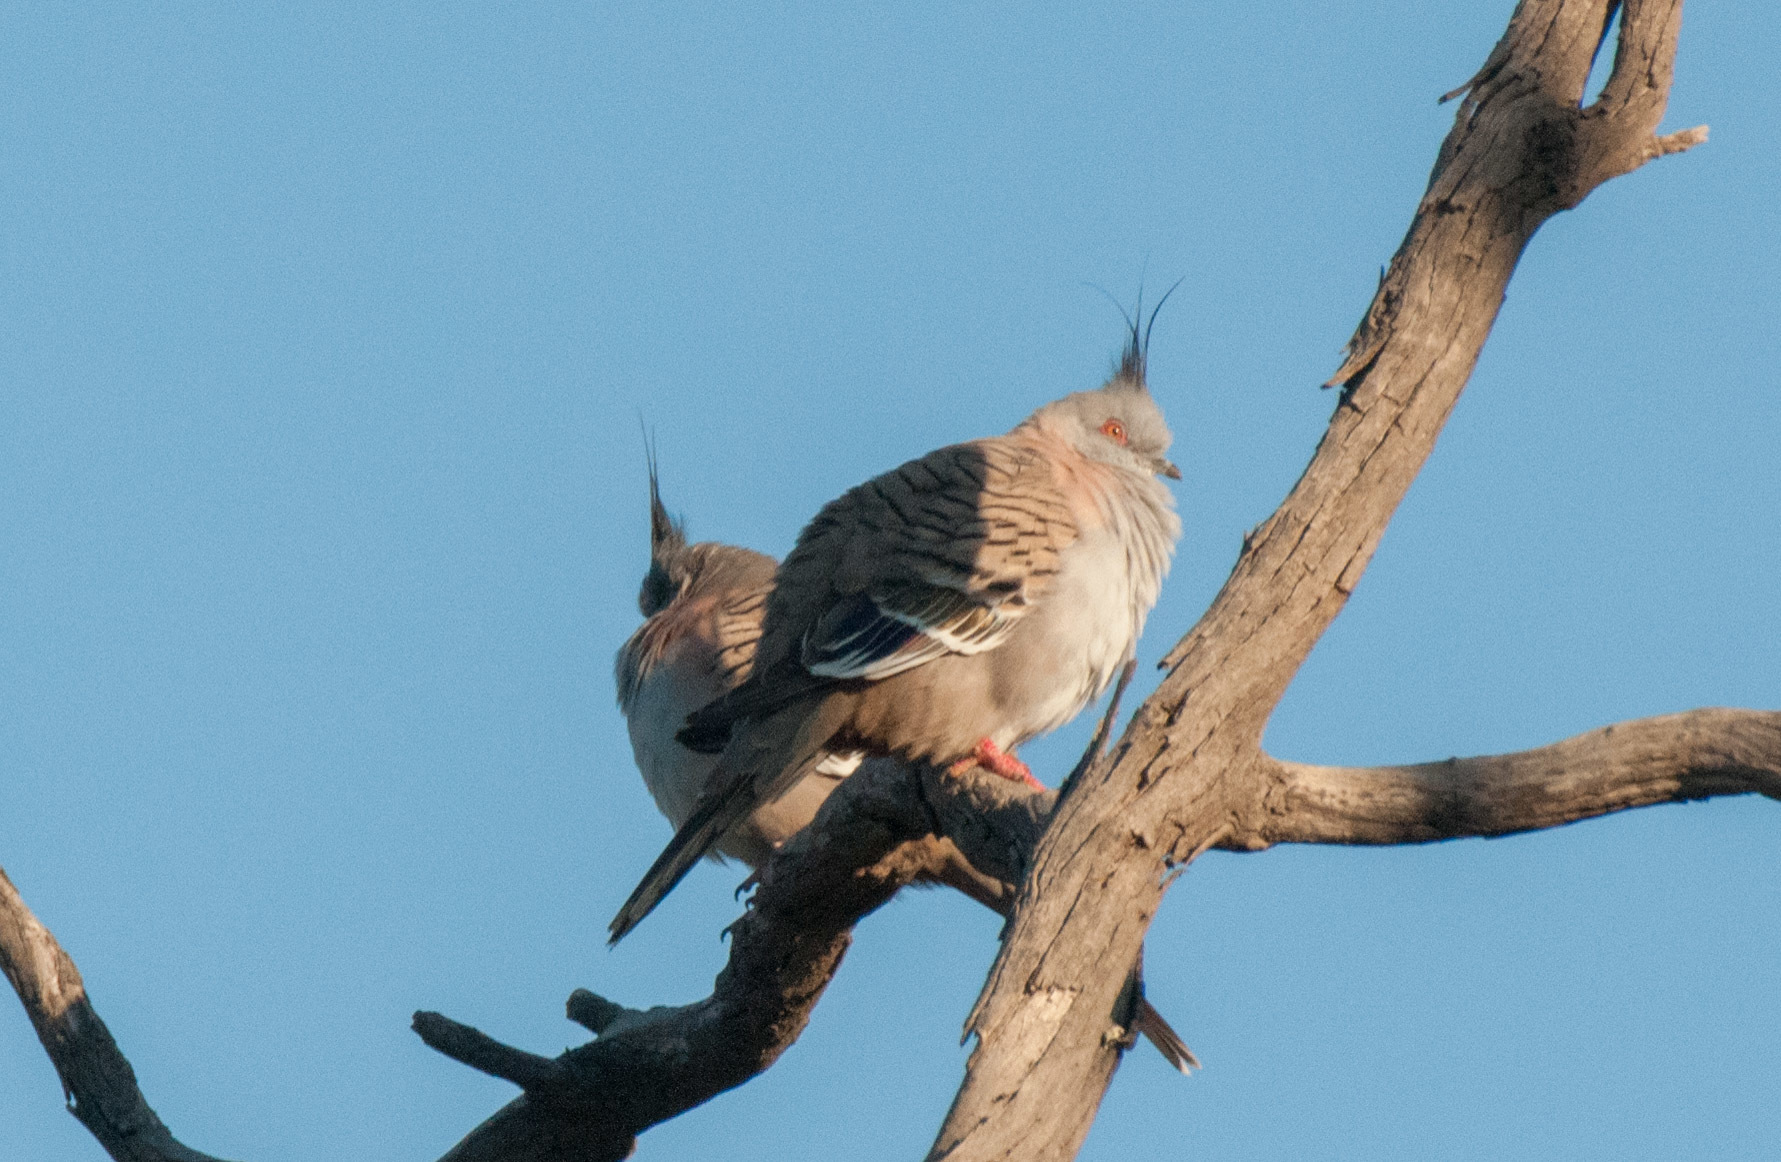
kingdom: Animalia
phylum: Chordata
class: Aves
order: Columbiformes
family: Columbidae
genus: Ocyphaps
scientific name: Ocyphaps lophotes
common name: Crested pigeon
